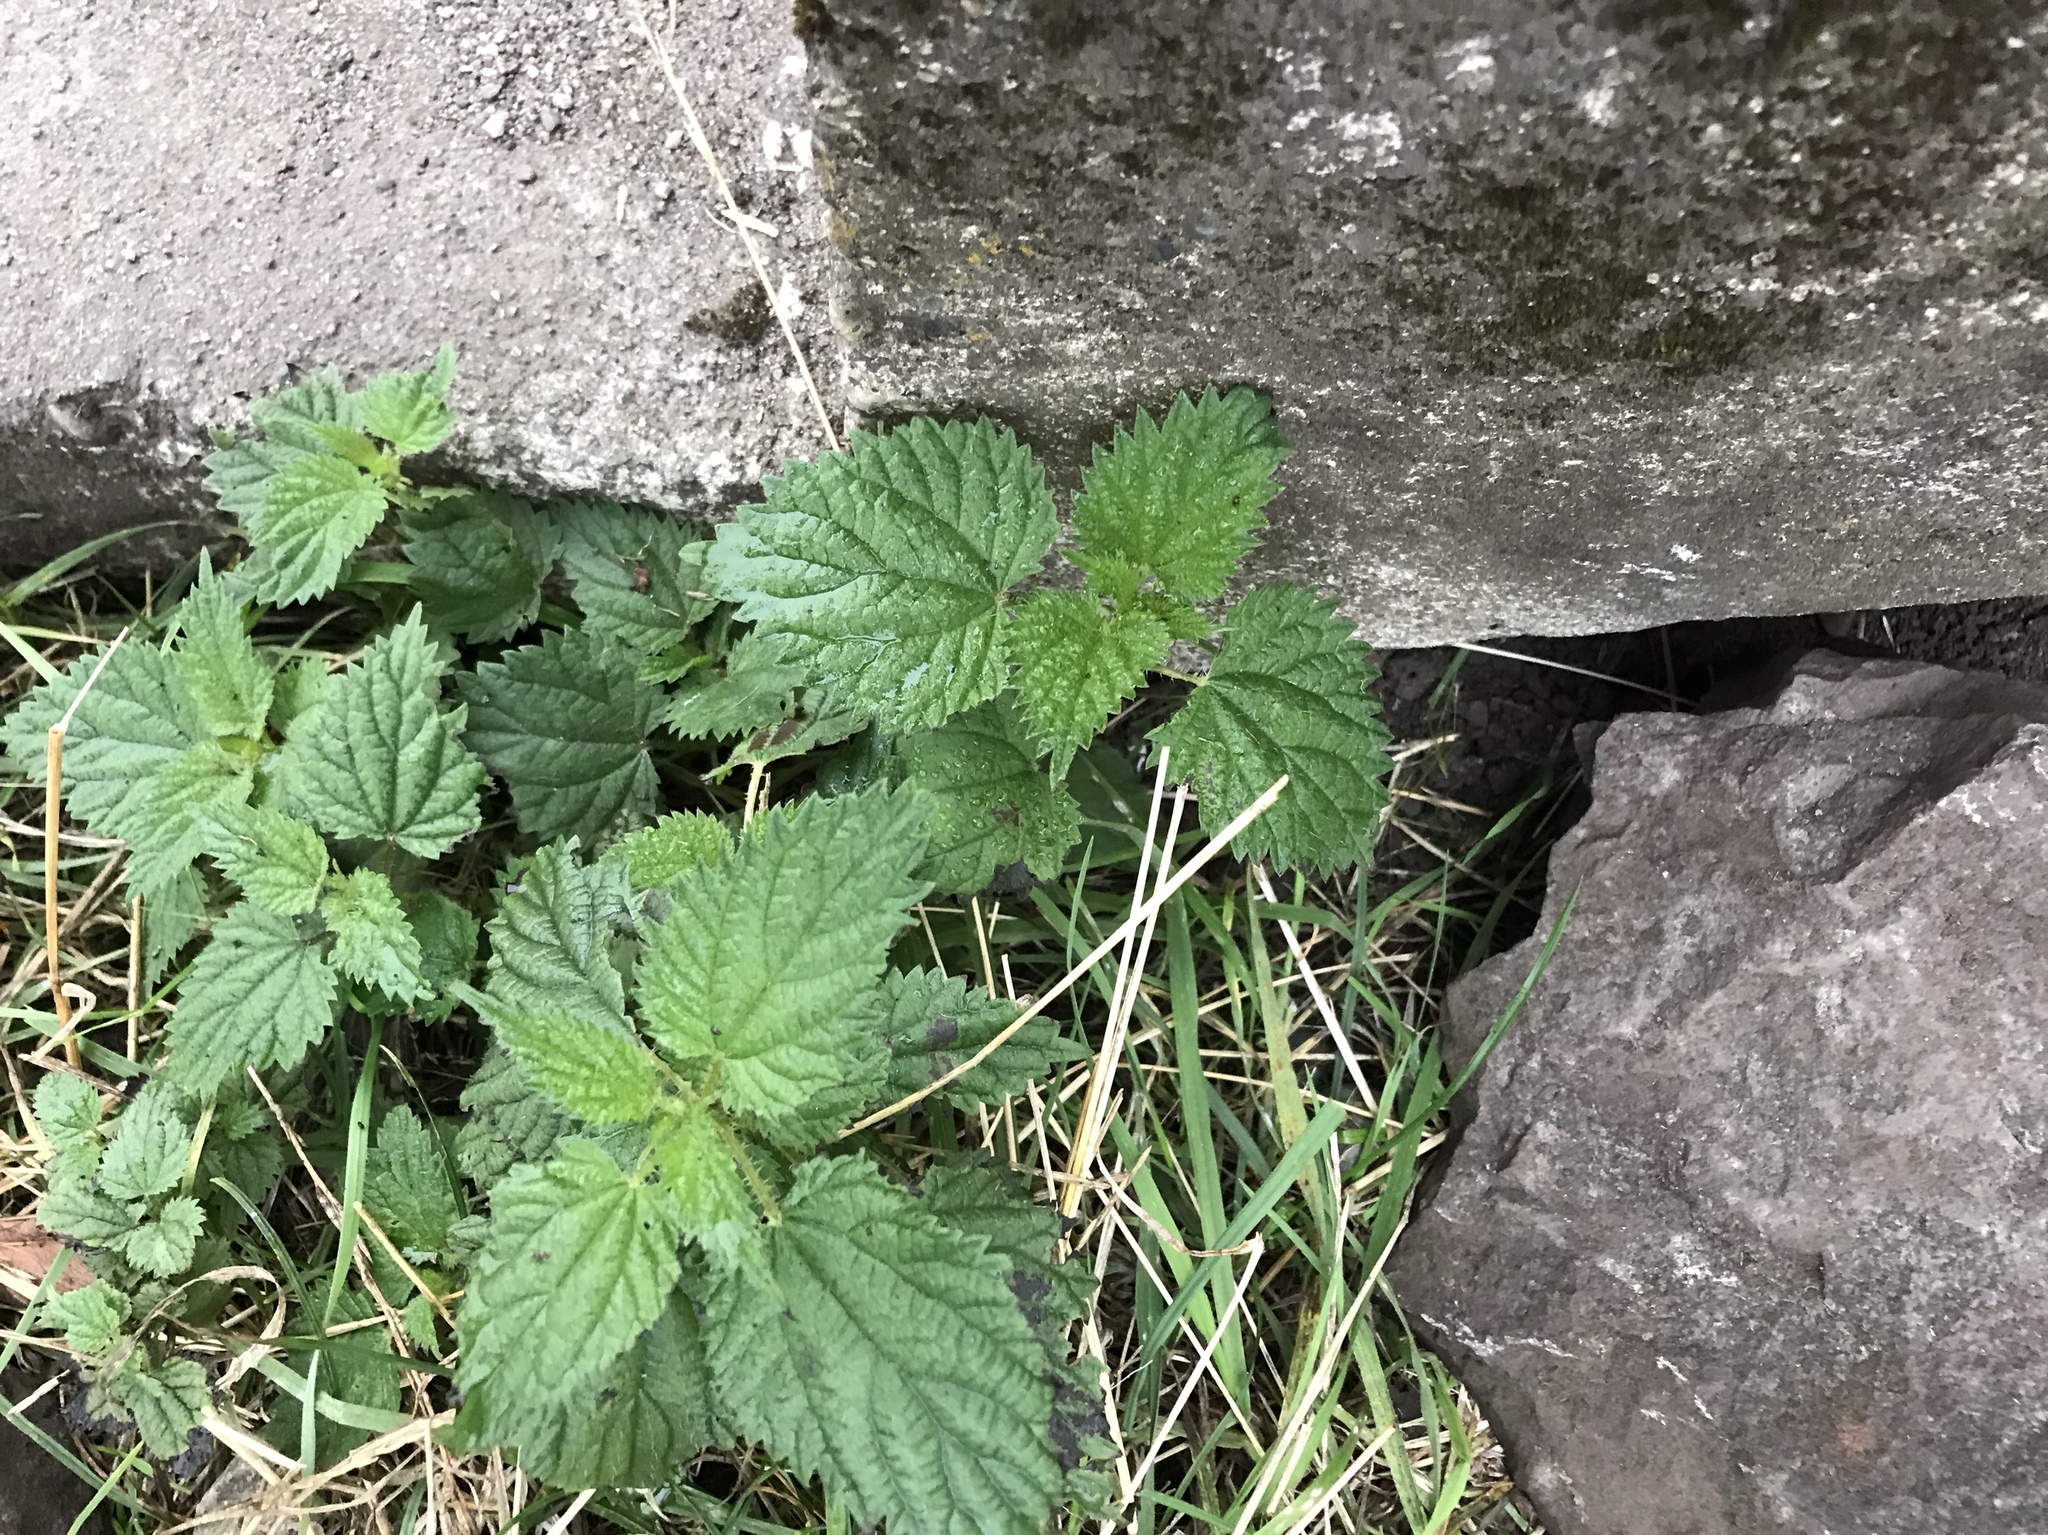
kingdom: Plantae
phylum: Tracheophyta
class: Magnoliopsida
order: Rosales
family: Urticaceae
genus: Urtica
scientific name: Urtica dioica
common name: Common nettle
